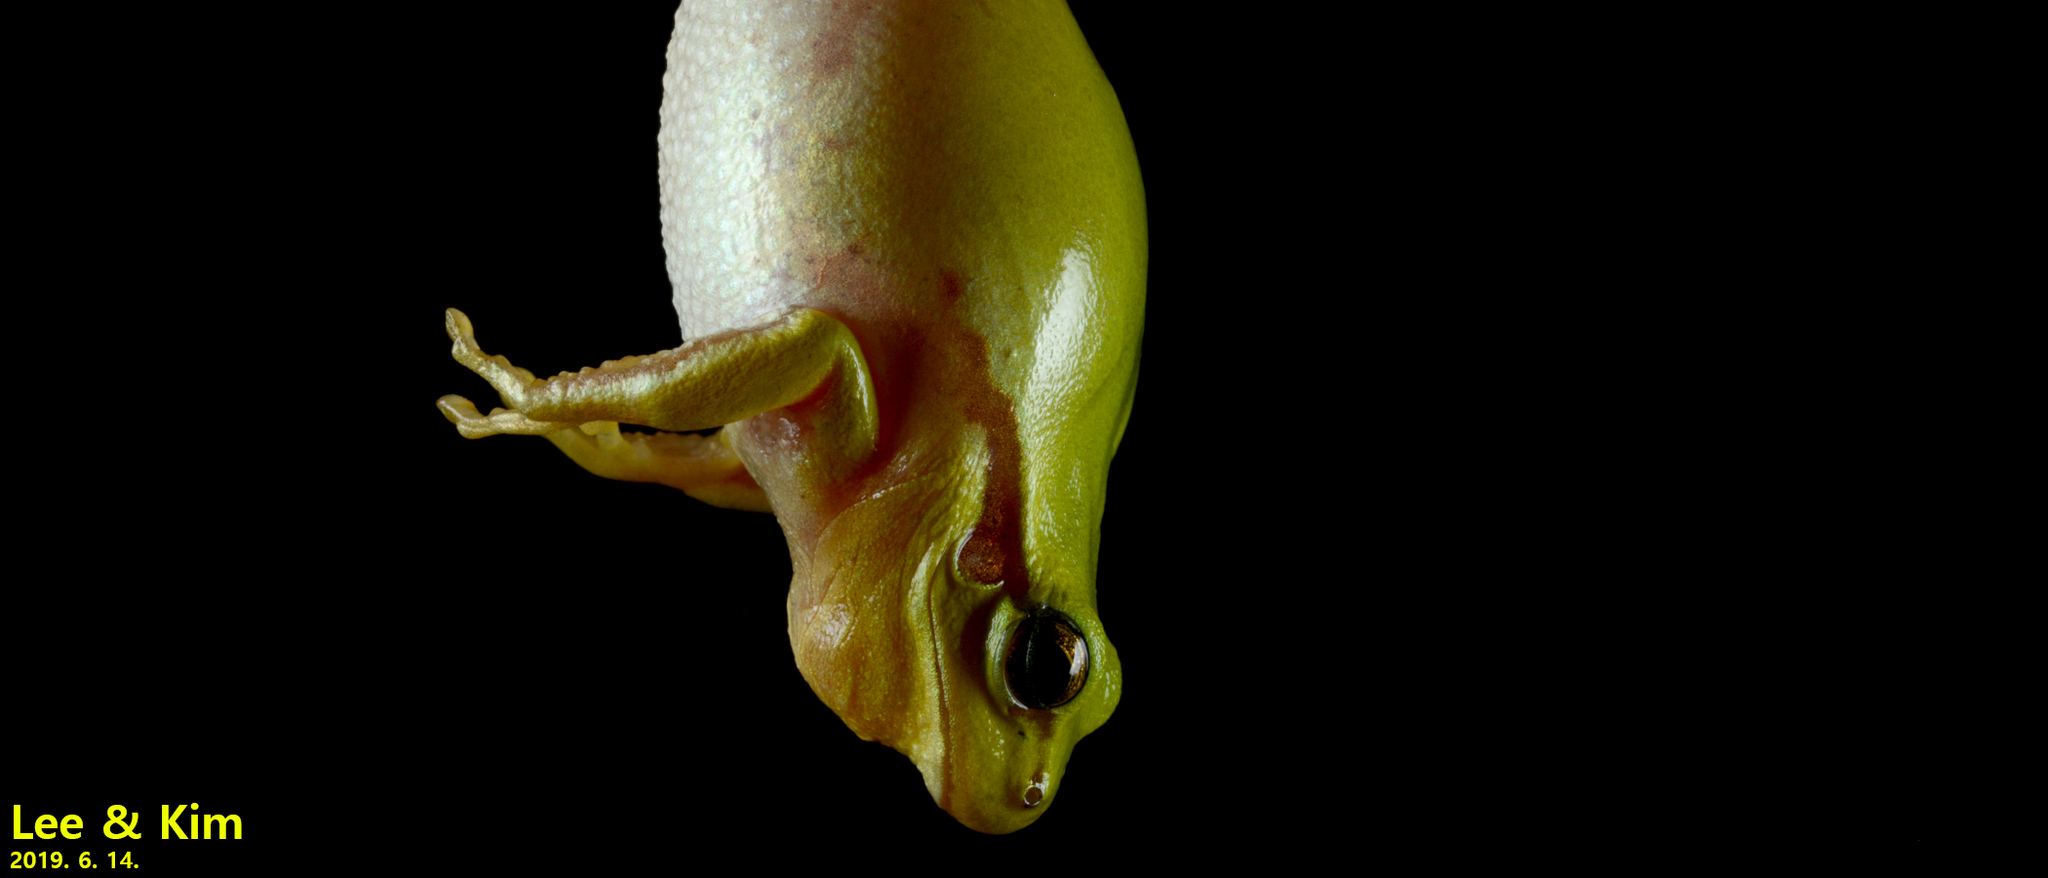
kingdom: Animalia
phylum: Chordata
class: Amphibia
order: Anura
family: Hylidae
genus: Dryophytes
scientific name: Dryophytes immaculatus
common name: North china treefrog
